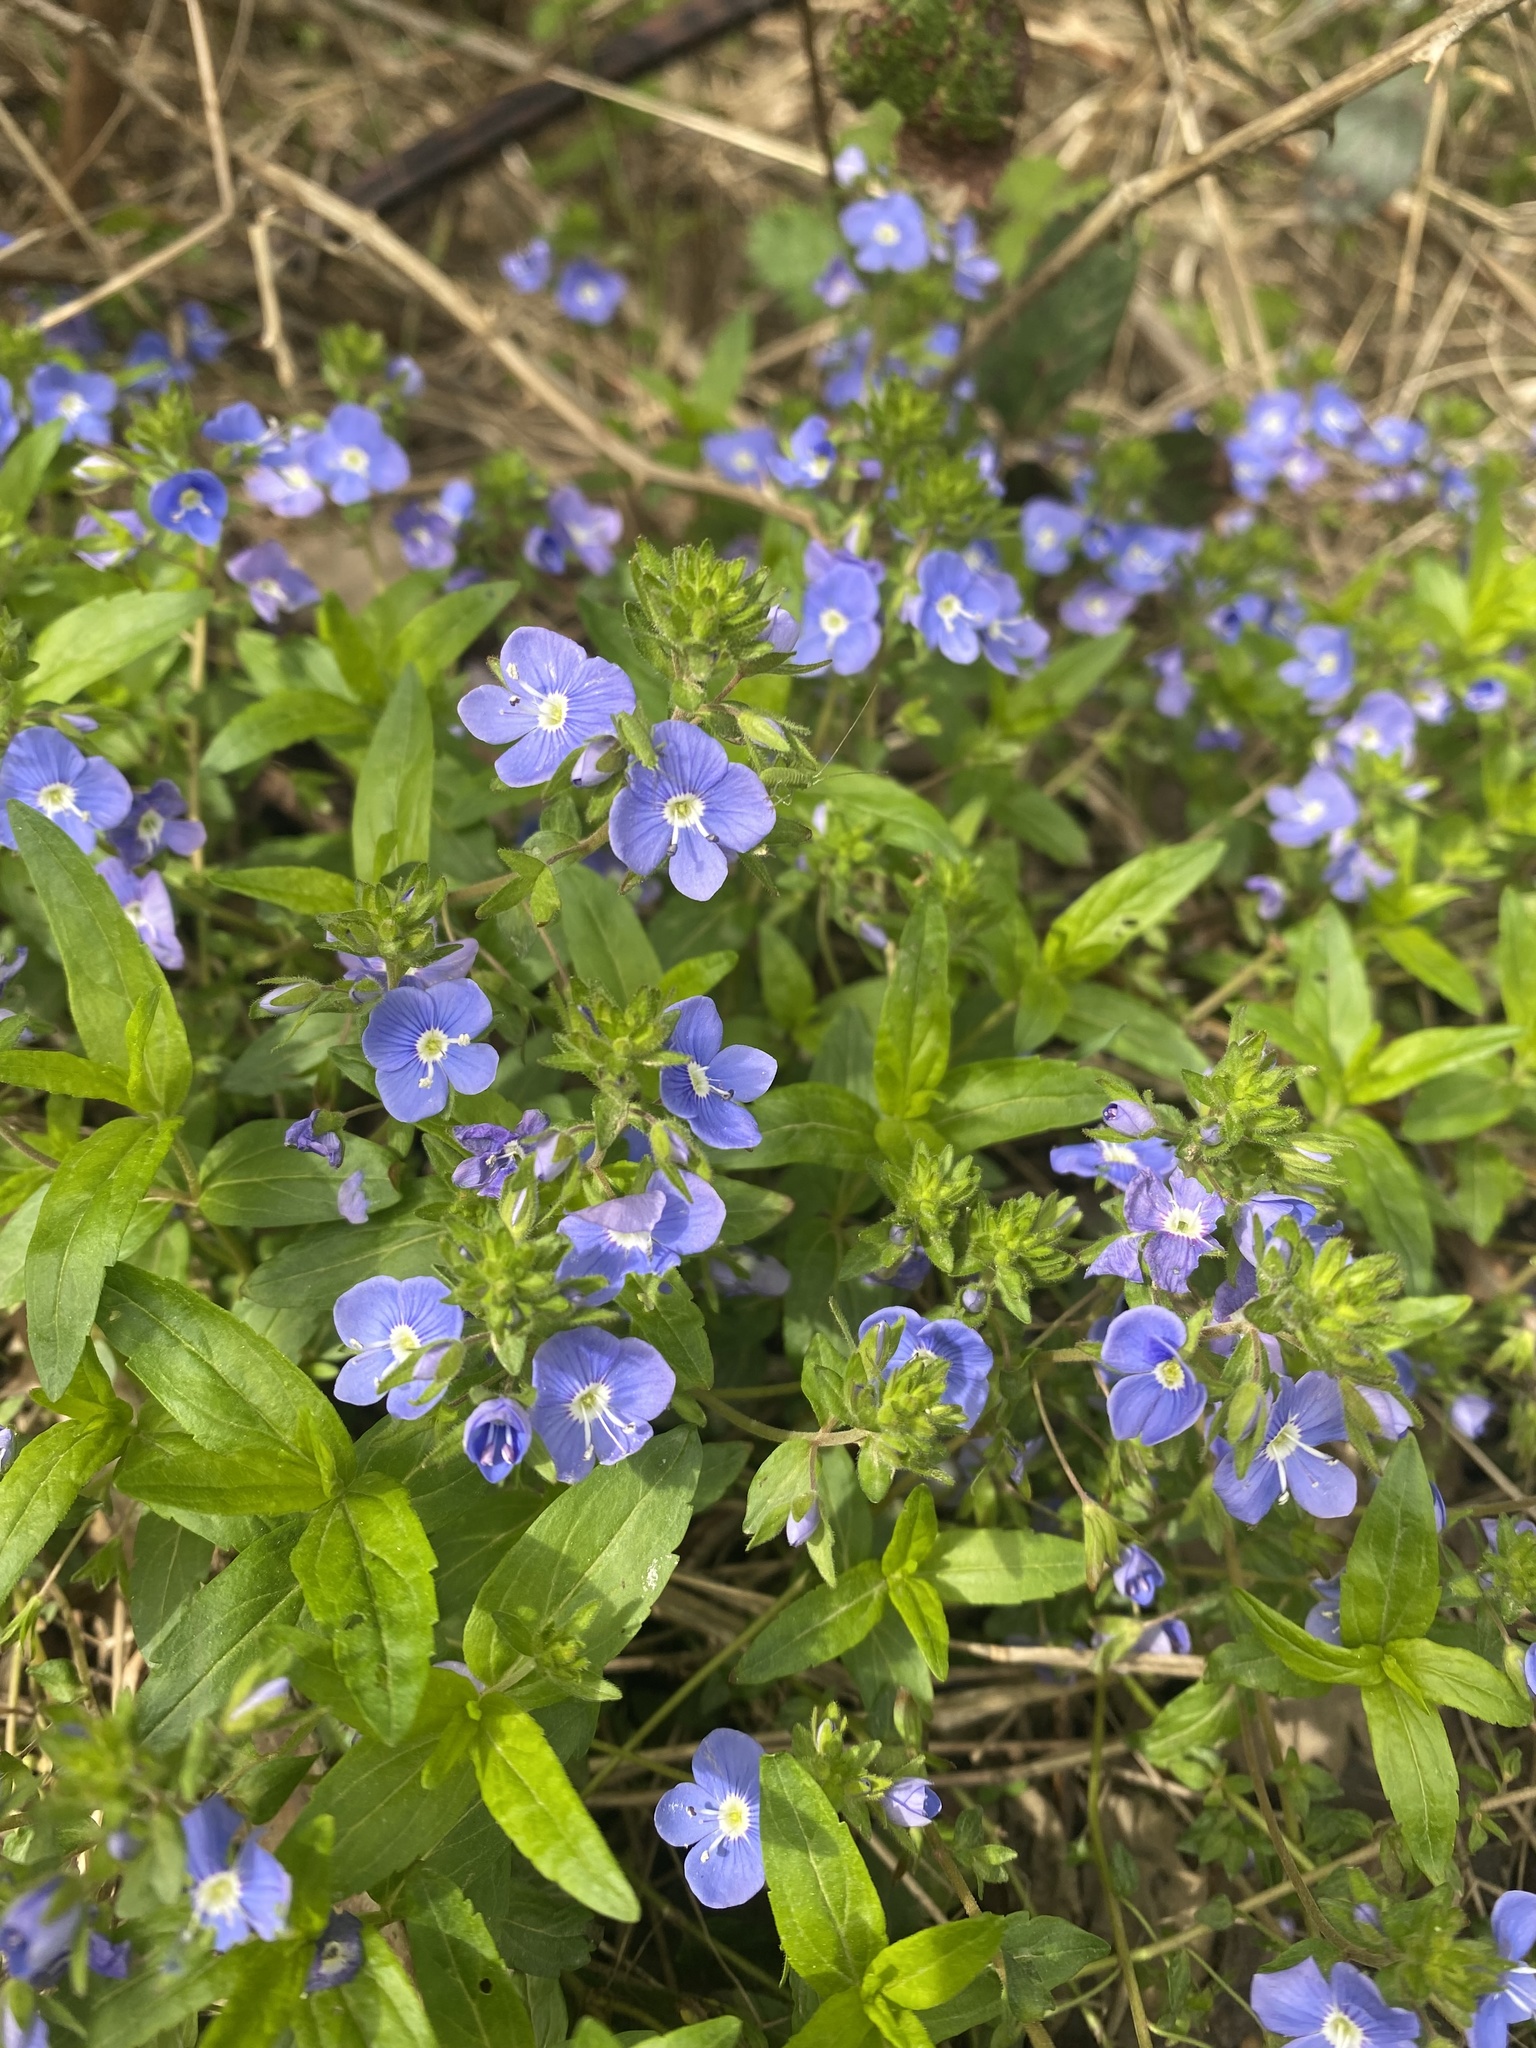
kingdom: Plantae
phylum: Tracheophyta
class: Magnoliopsida
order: Lamiales
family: Plantaginaceae
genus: Veronica
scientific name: Veronica
